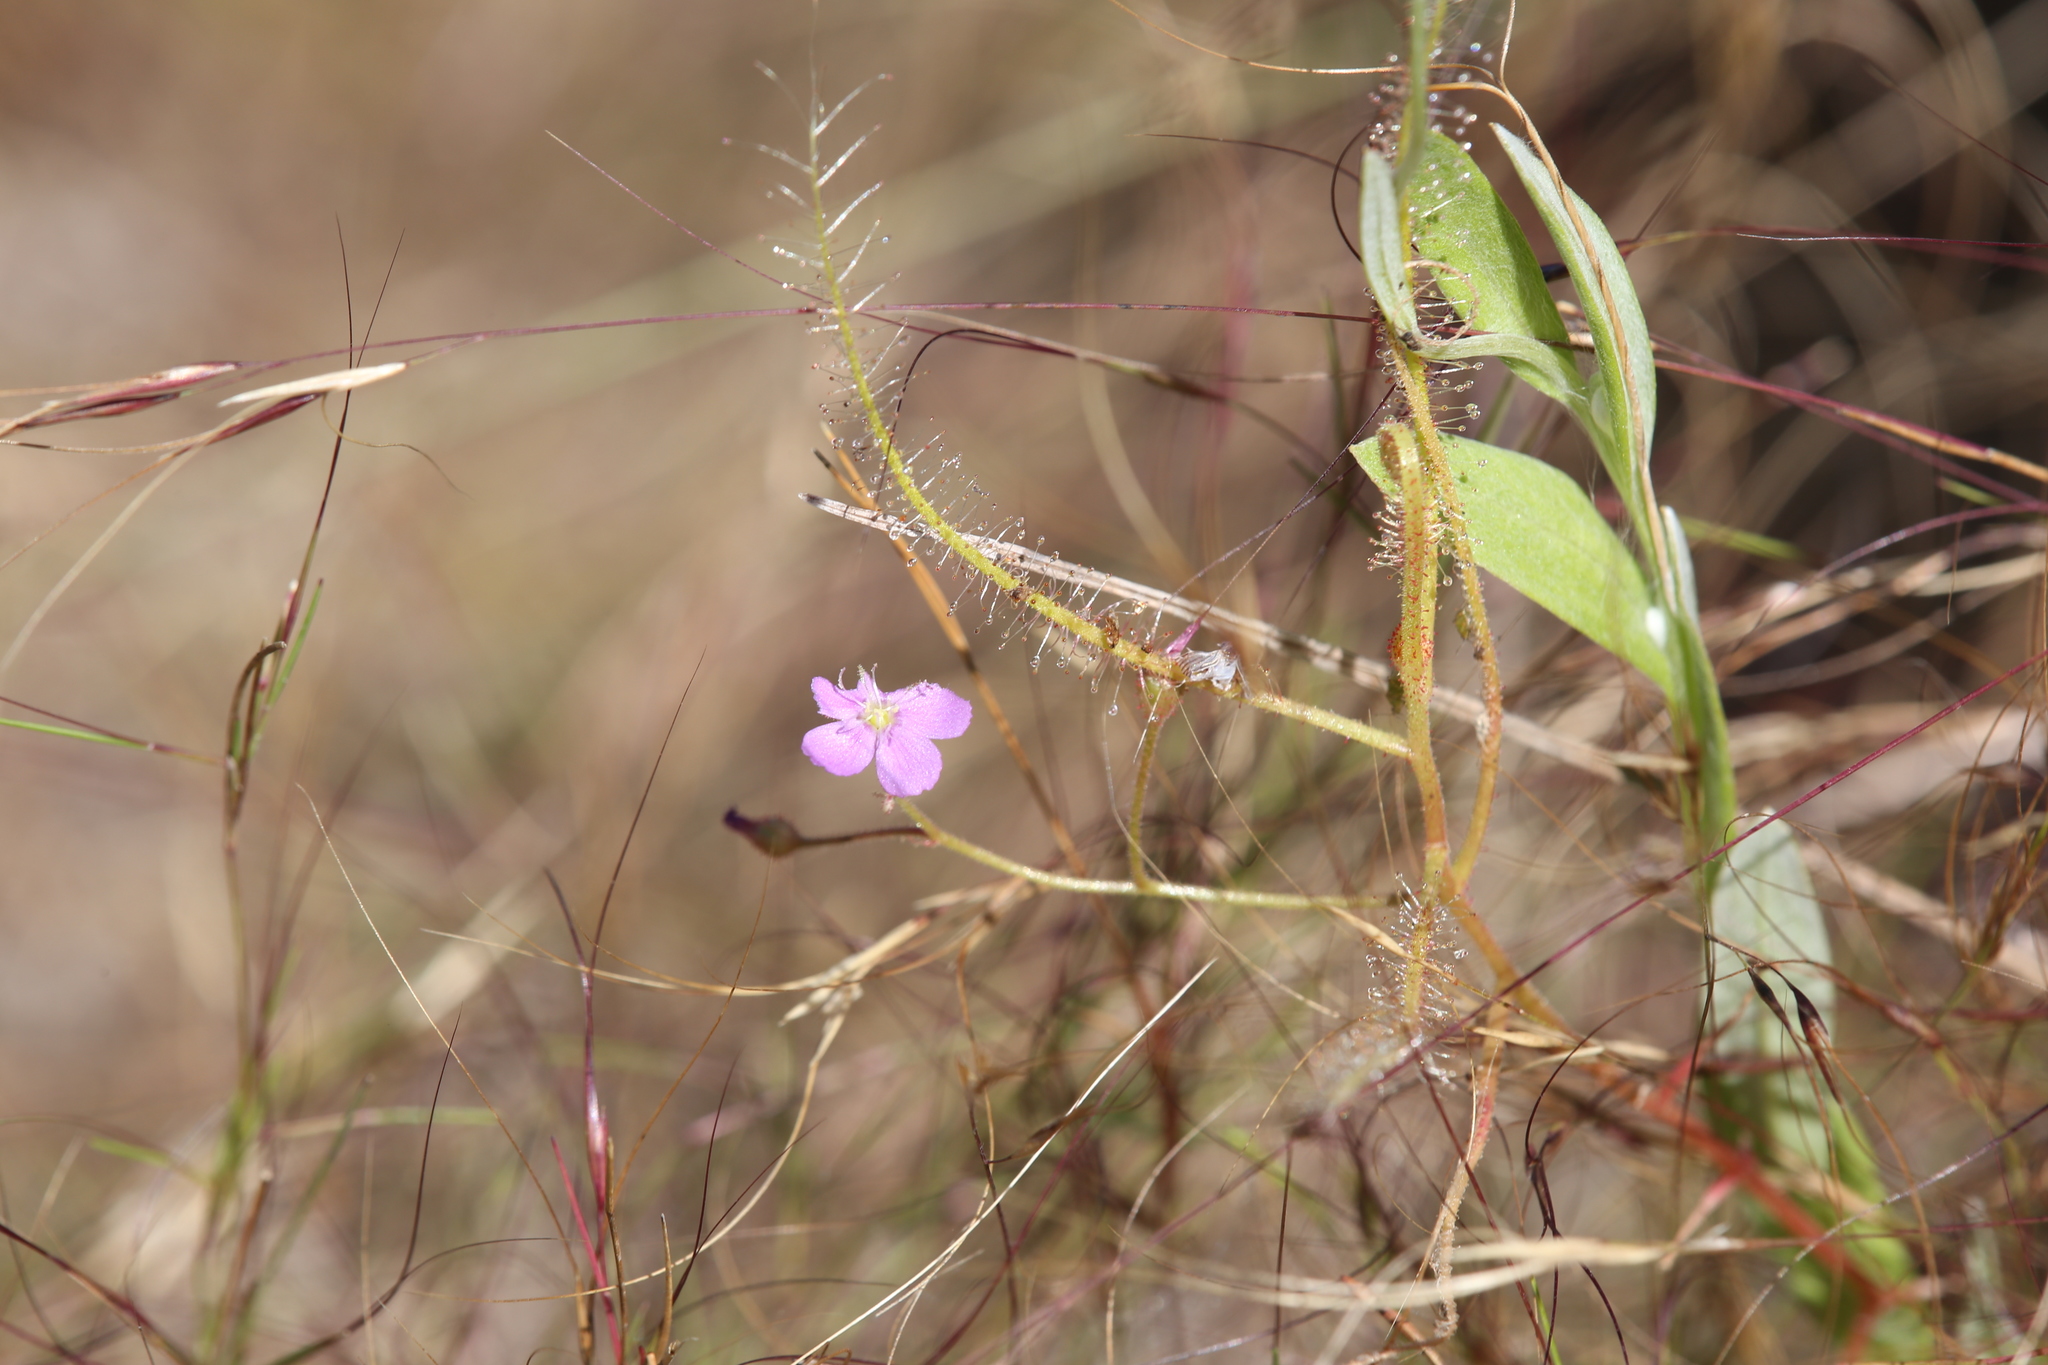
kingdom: Plantae
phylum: Tracheophyta
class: Magnoliopsida
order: Caryophyllales
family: Droseraceae
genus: Drosera
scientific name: Drosera indica
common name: Indian sundew
